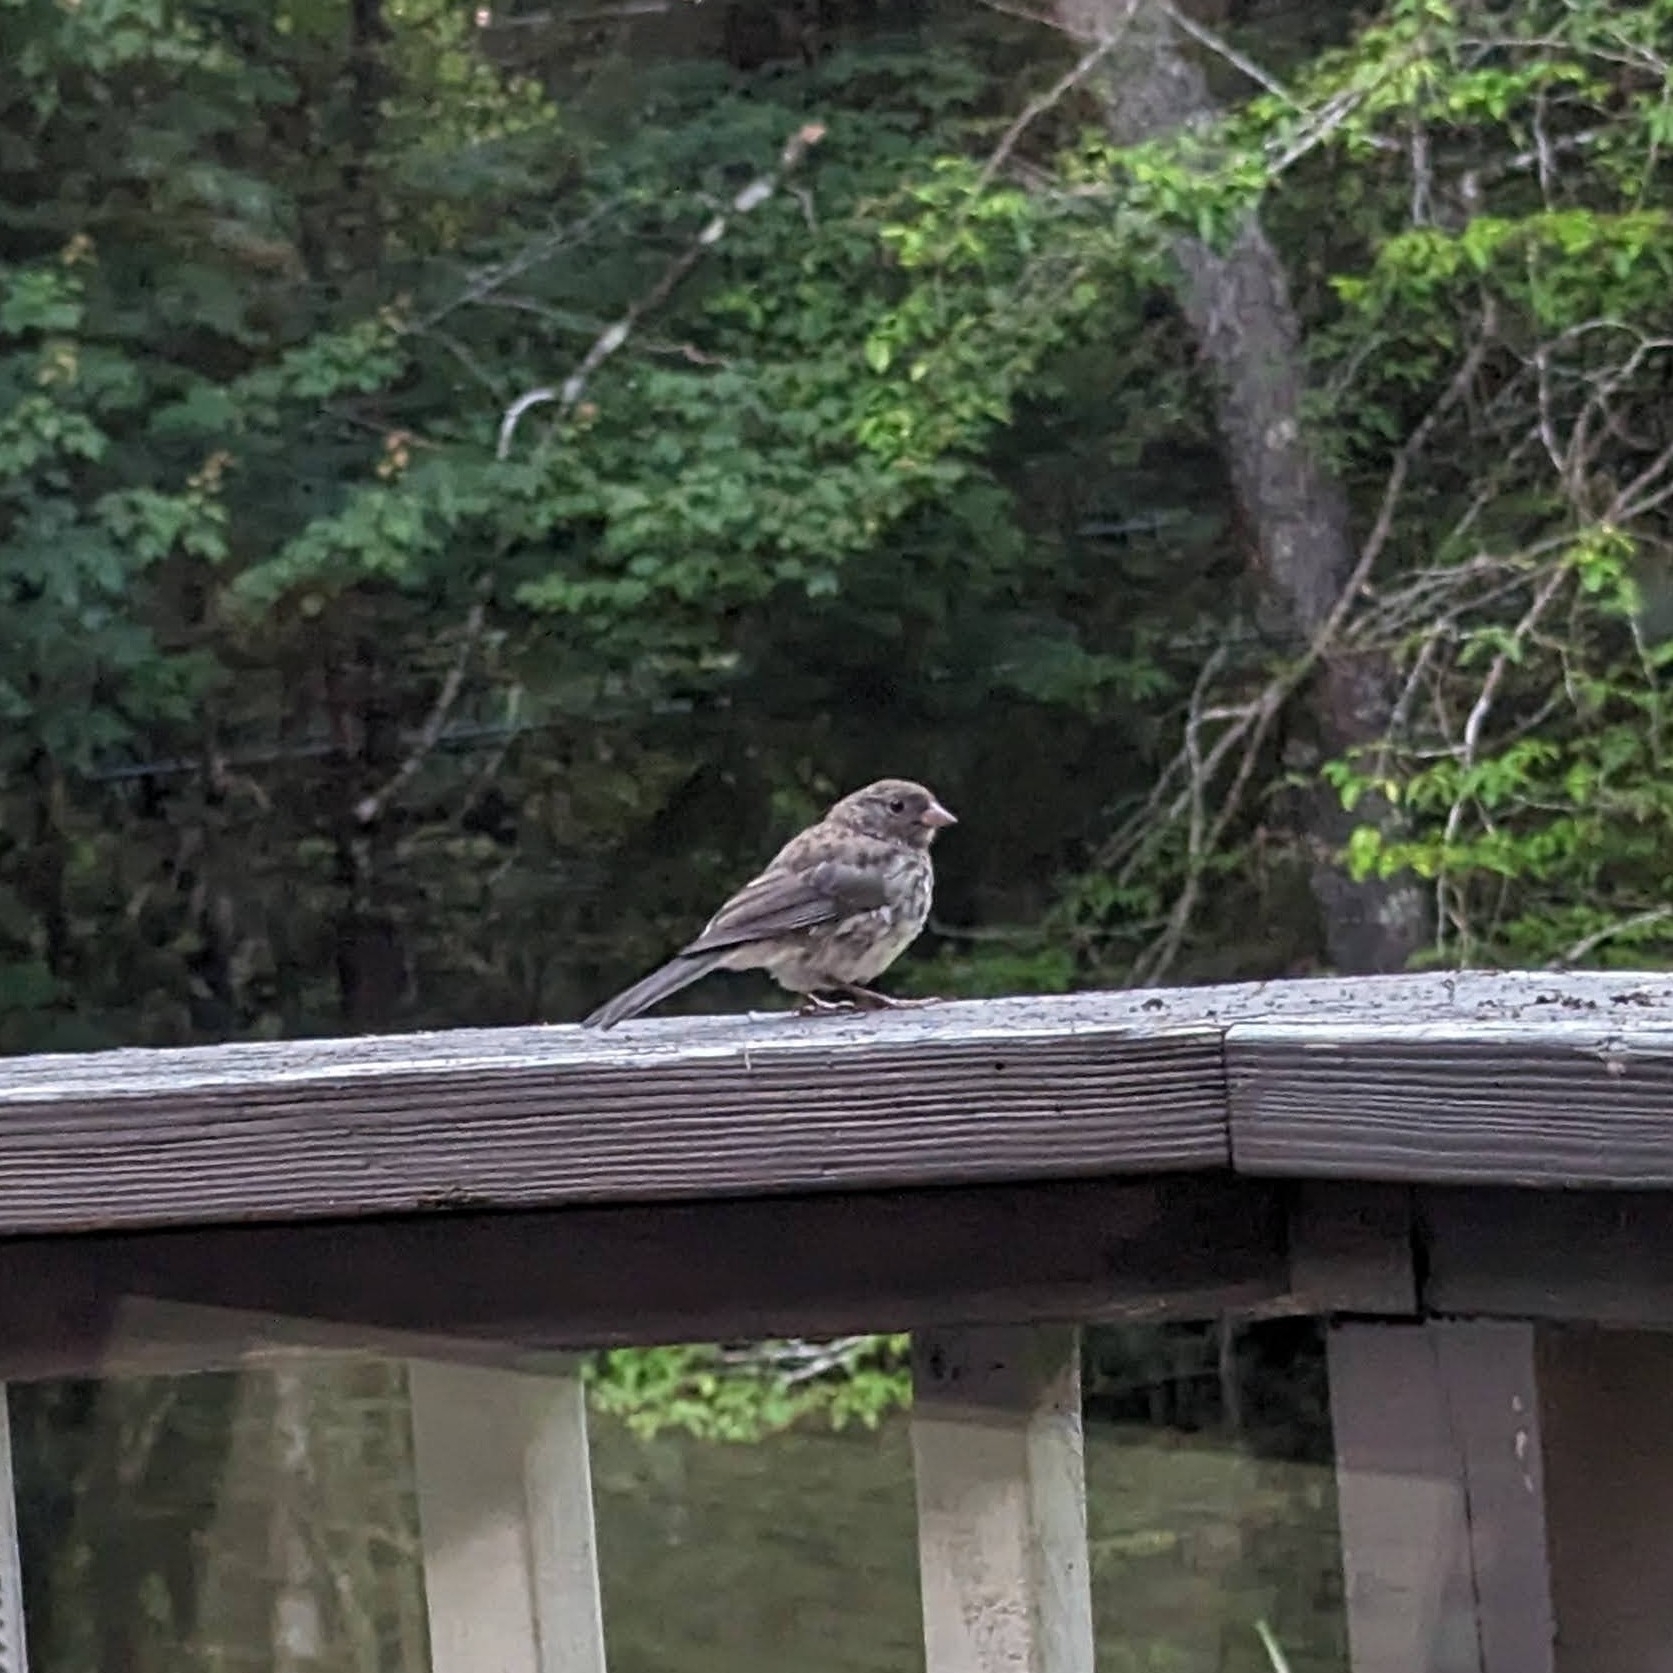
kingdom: Animalia
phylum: Chordata
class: Aves
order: Passeriformes
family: Passerellidae
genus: Junco
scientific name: Junco hyemalis
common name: Dark-eyed junco
